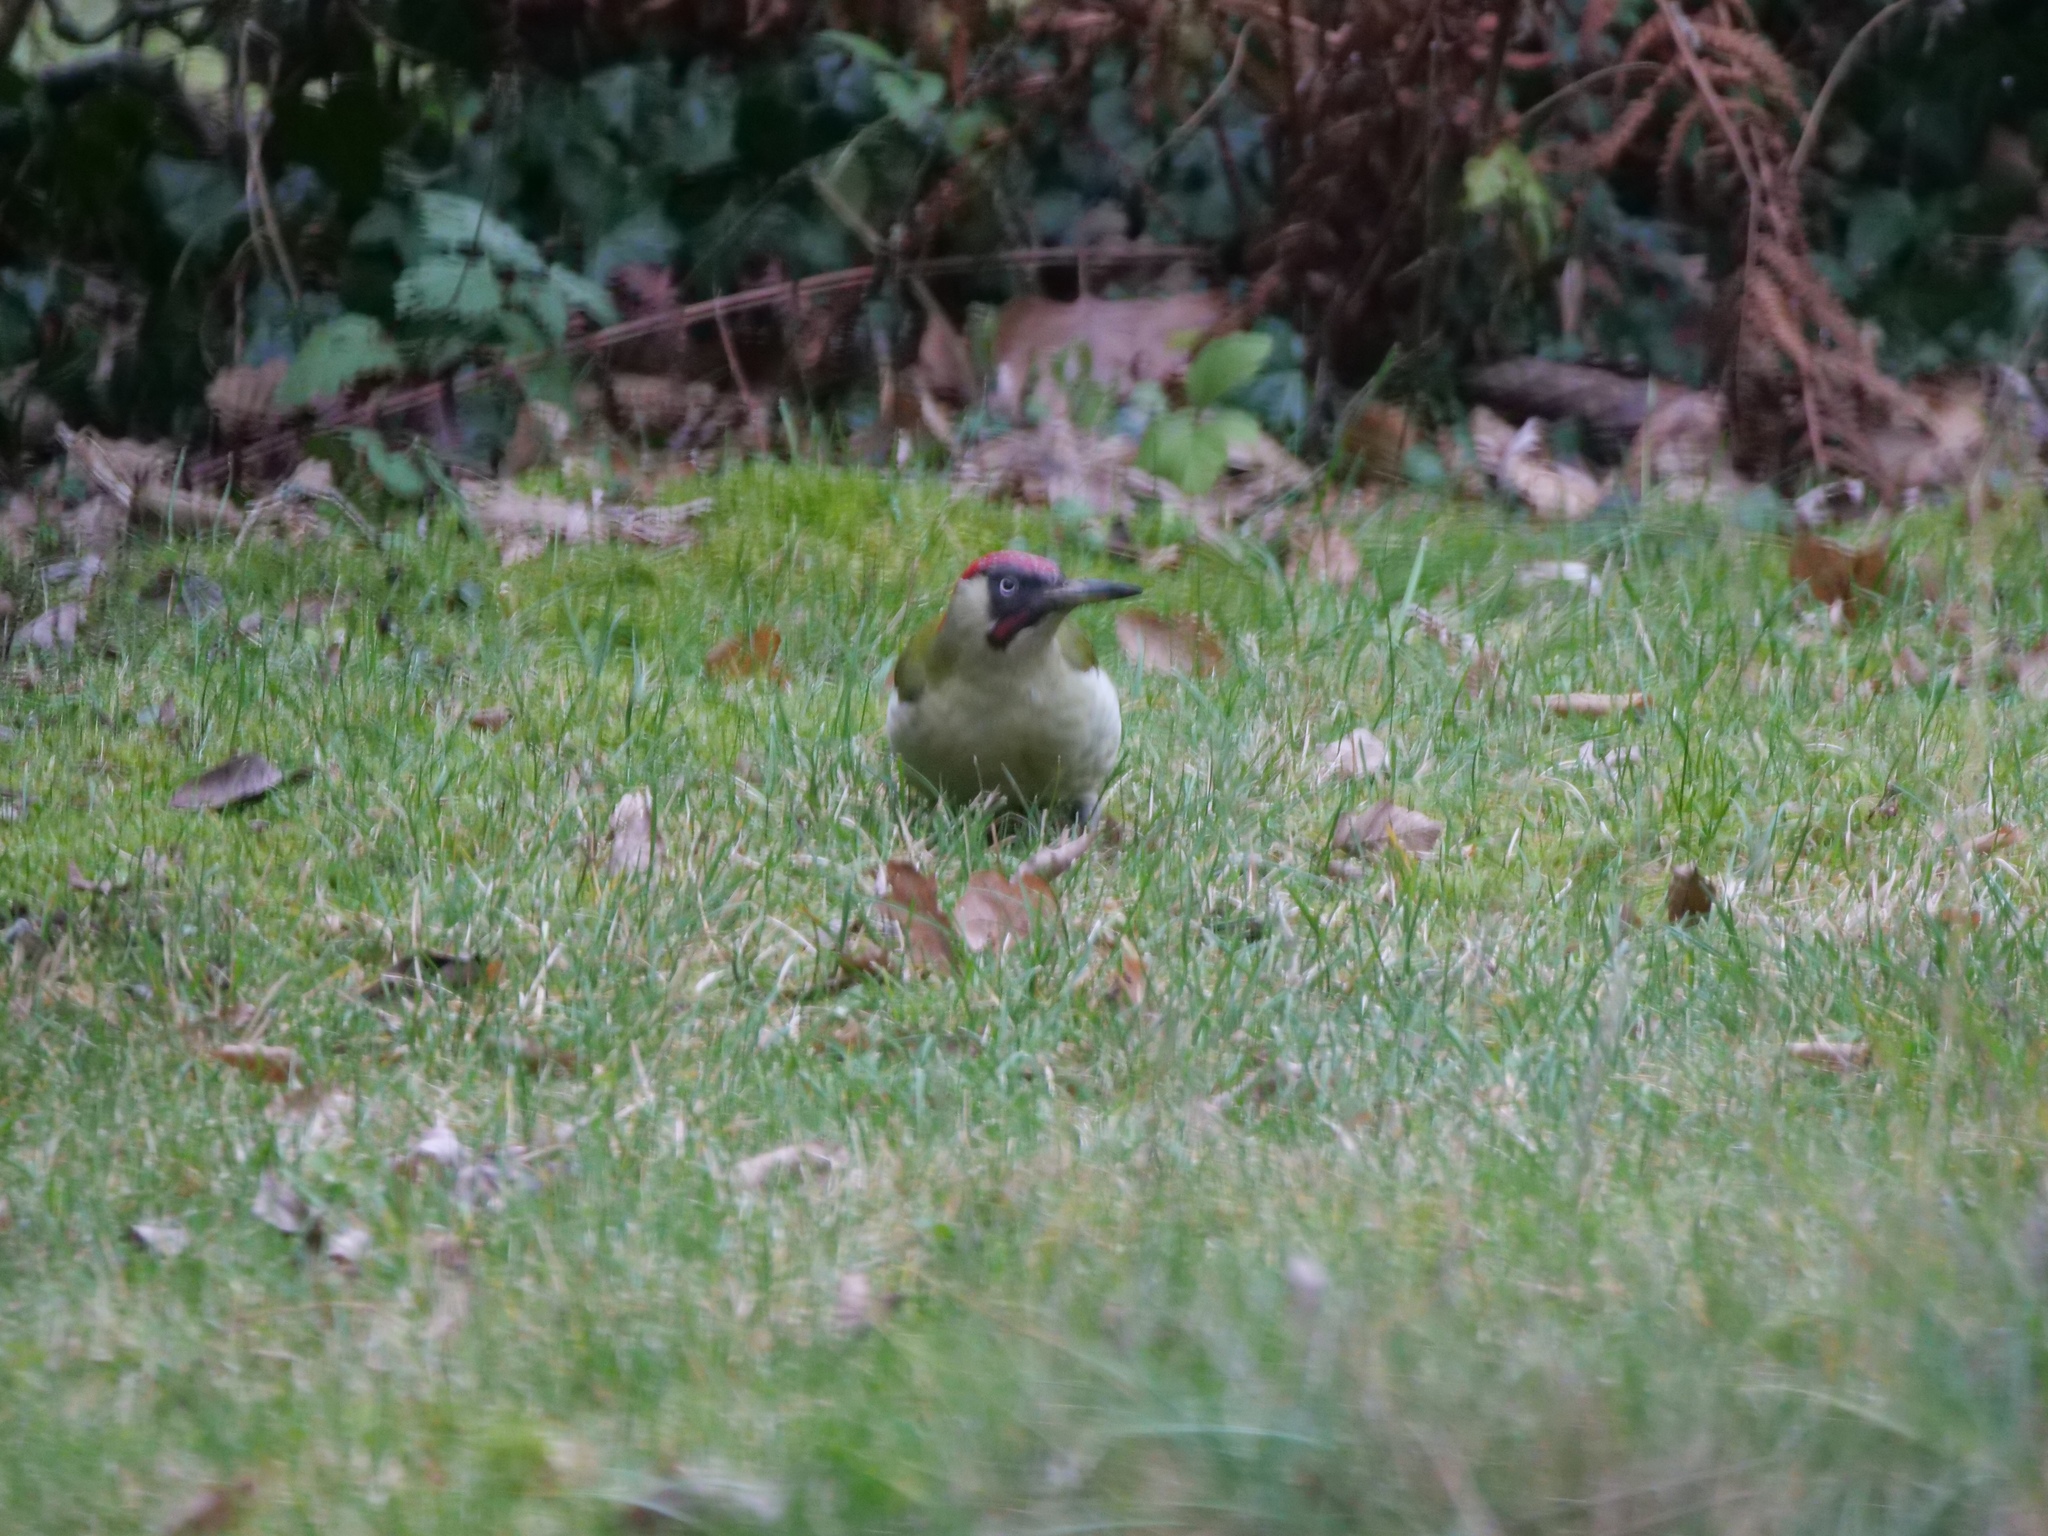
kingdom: Animalia
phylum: Chordata
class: Aves
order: Piciformes
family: Picidae
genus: Picus
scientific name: Picus viridis
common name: European green woodpecker
